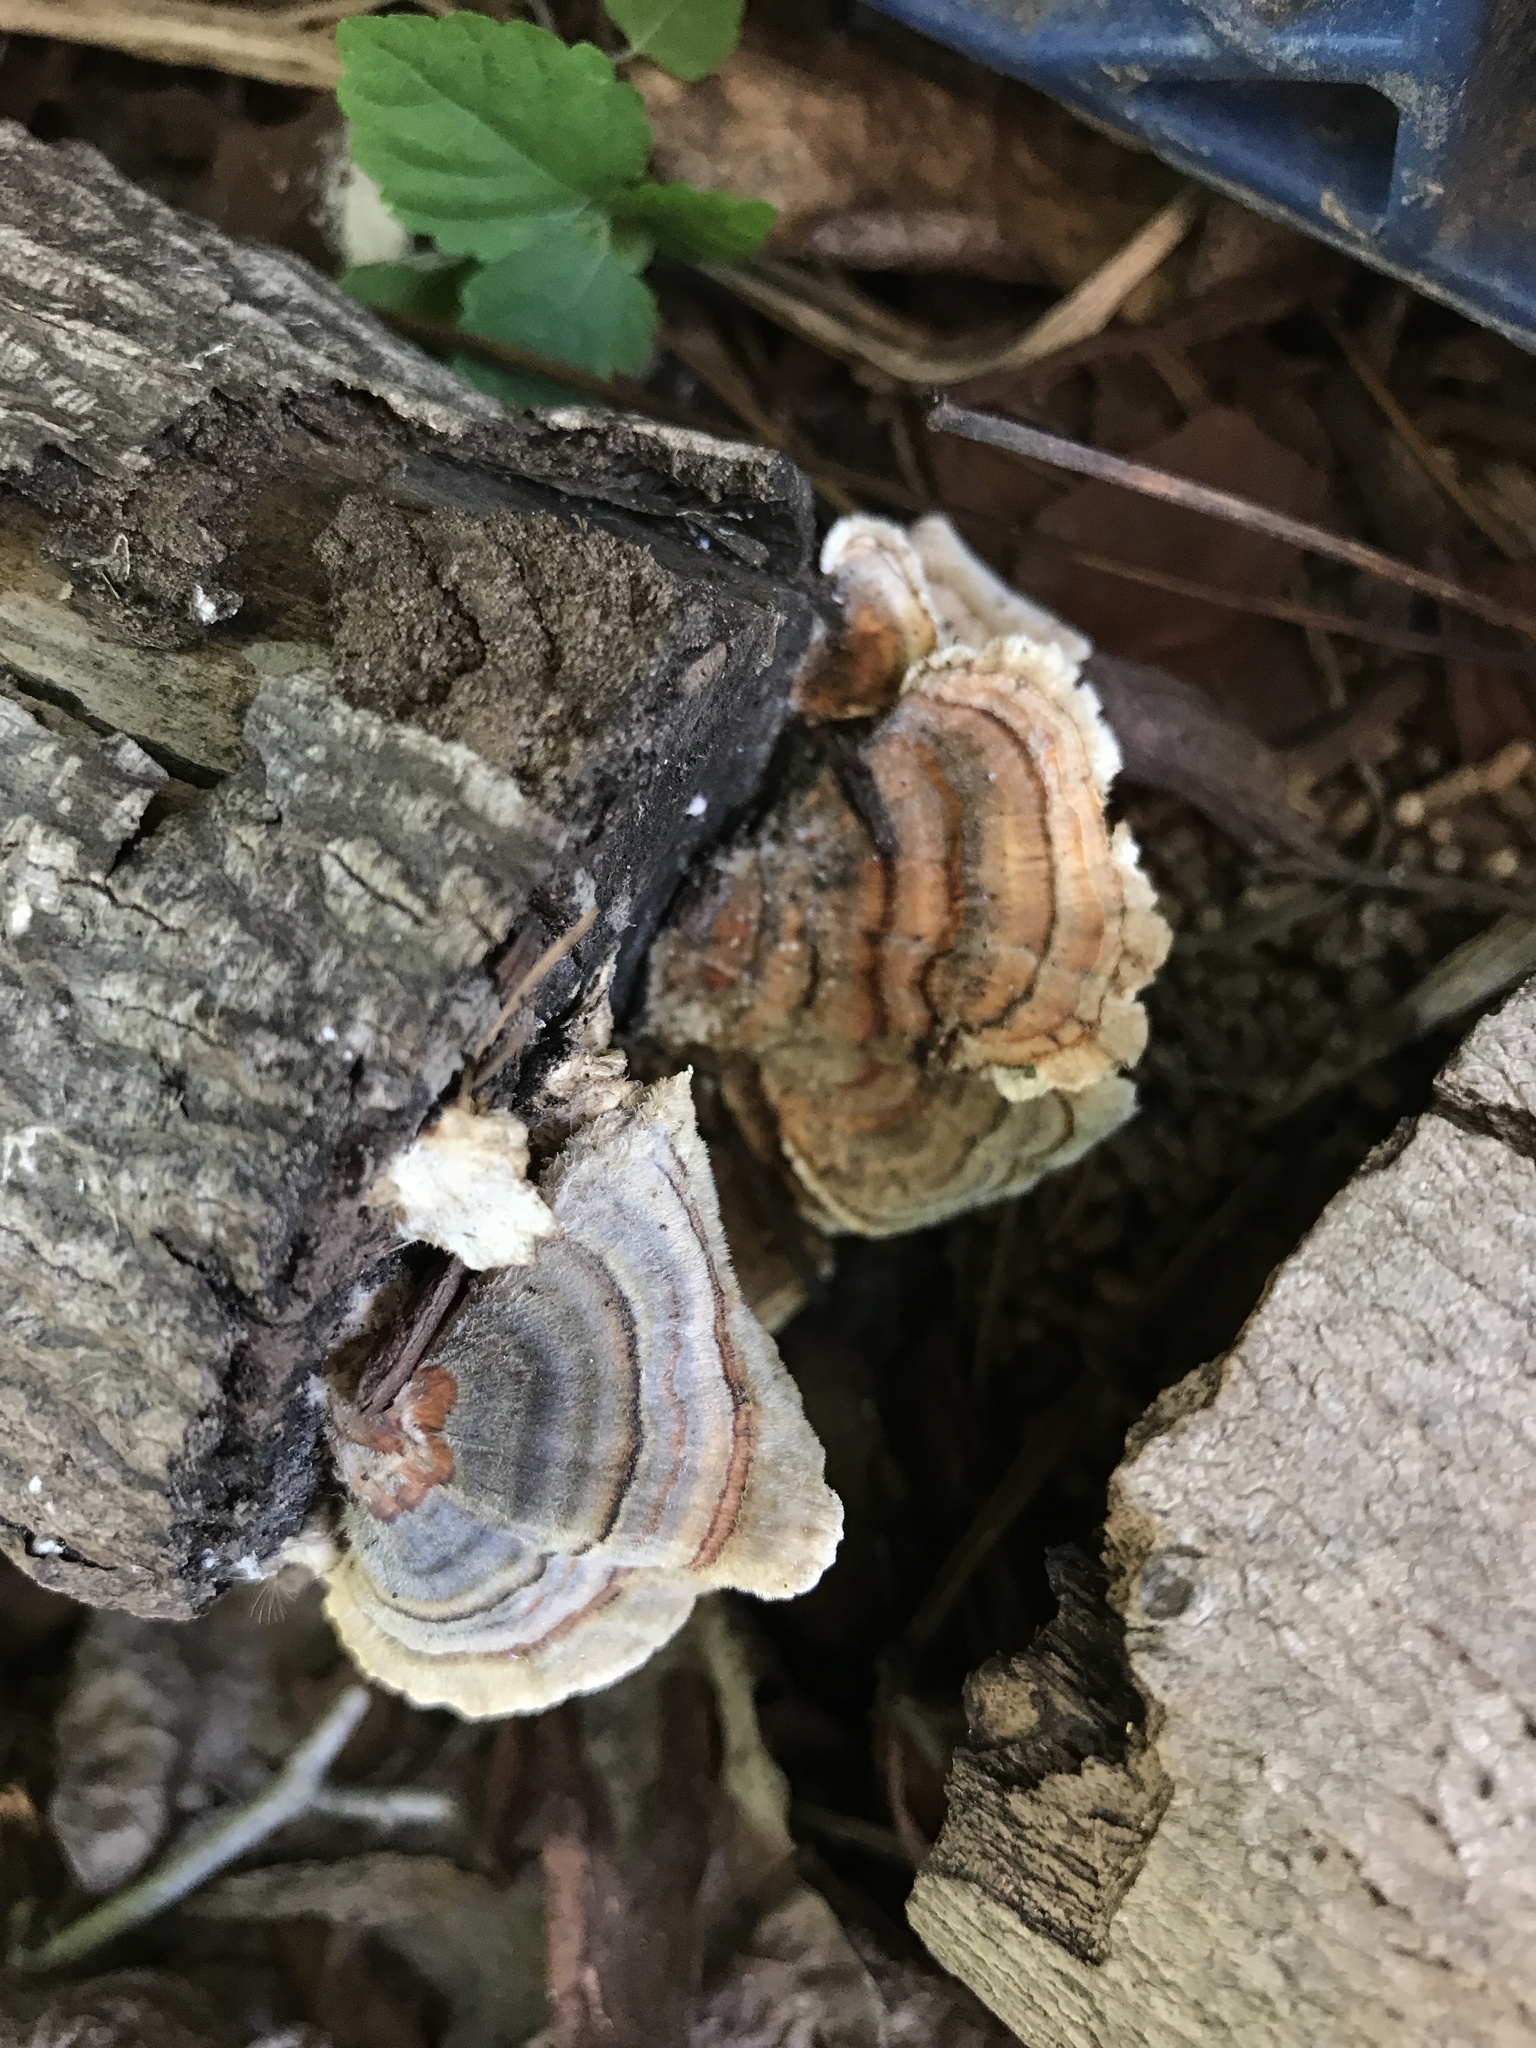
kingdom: Fungi
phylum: Basidiomycota
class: Agaricomycetes
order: Polyporales
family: Polyporaceae
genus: Trametes
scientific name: Trametes versicolor
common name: Turkeytail
